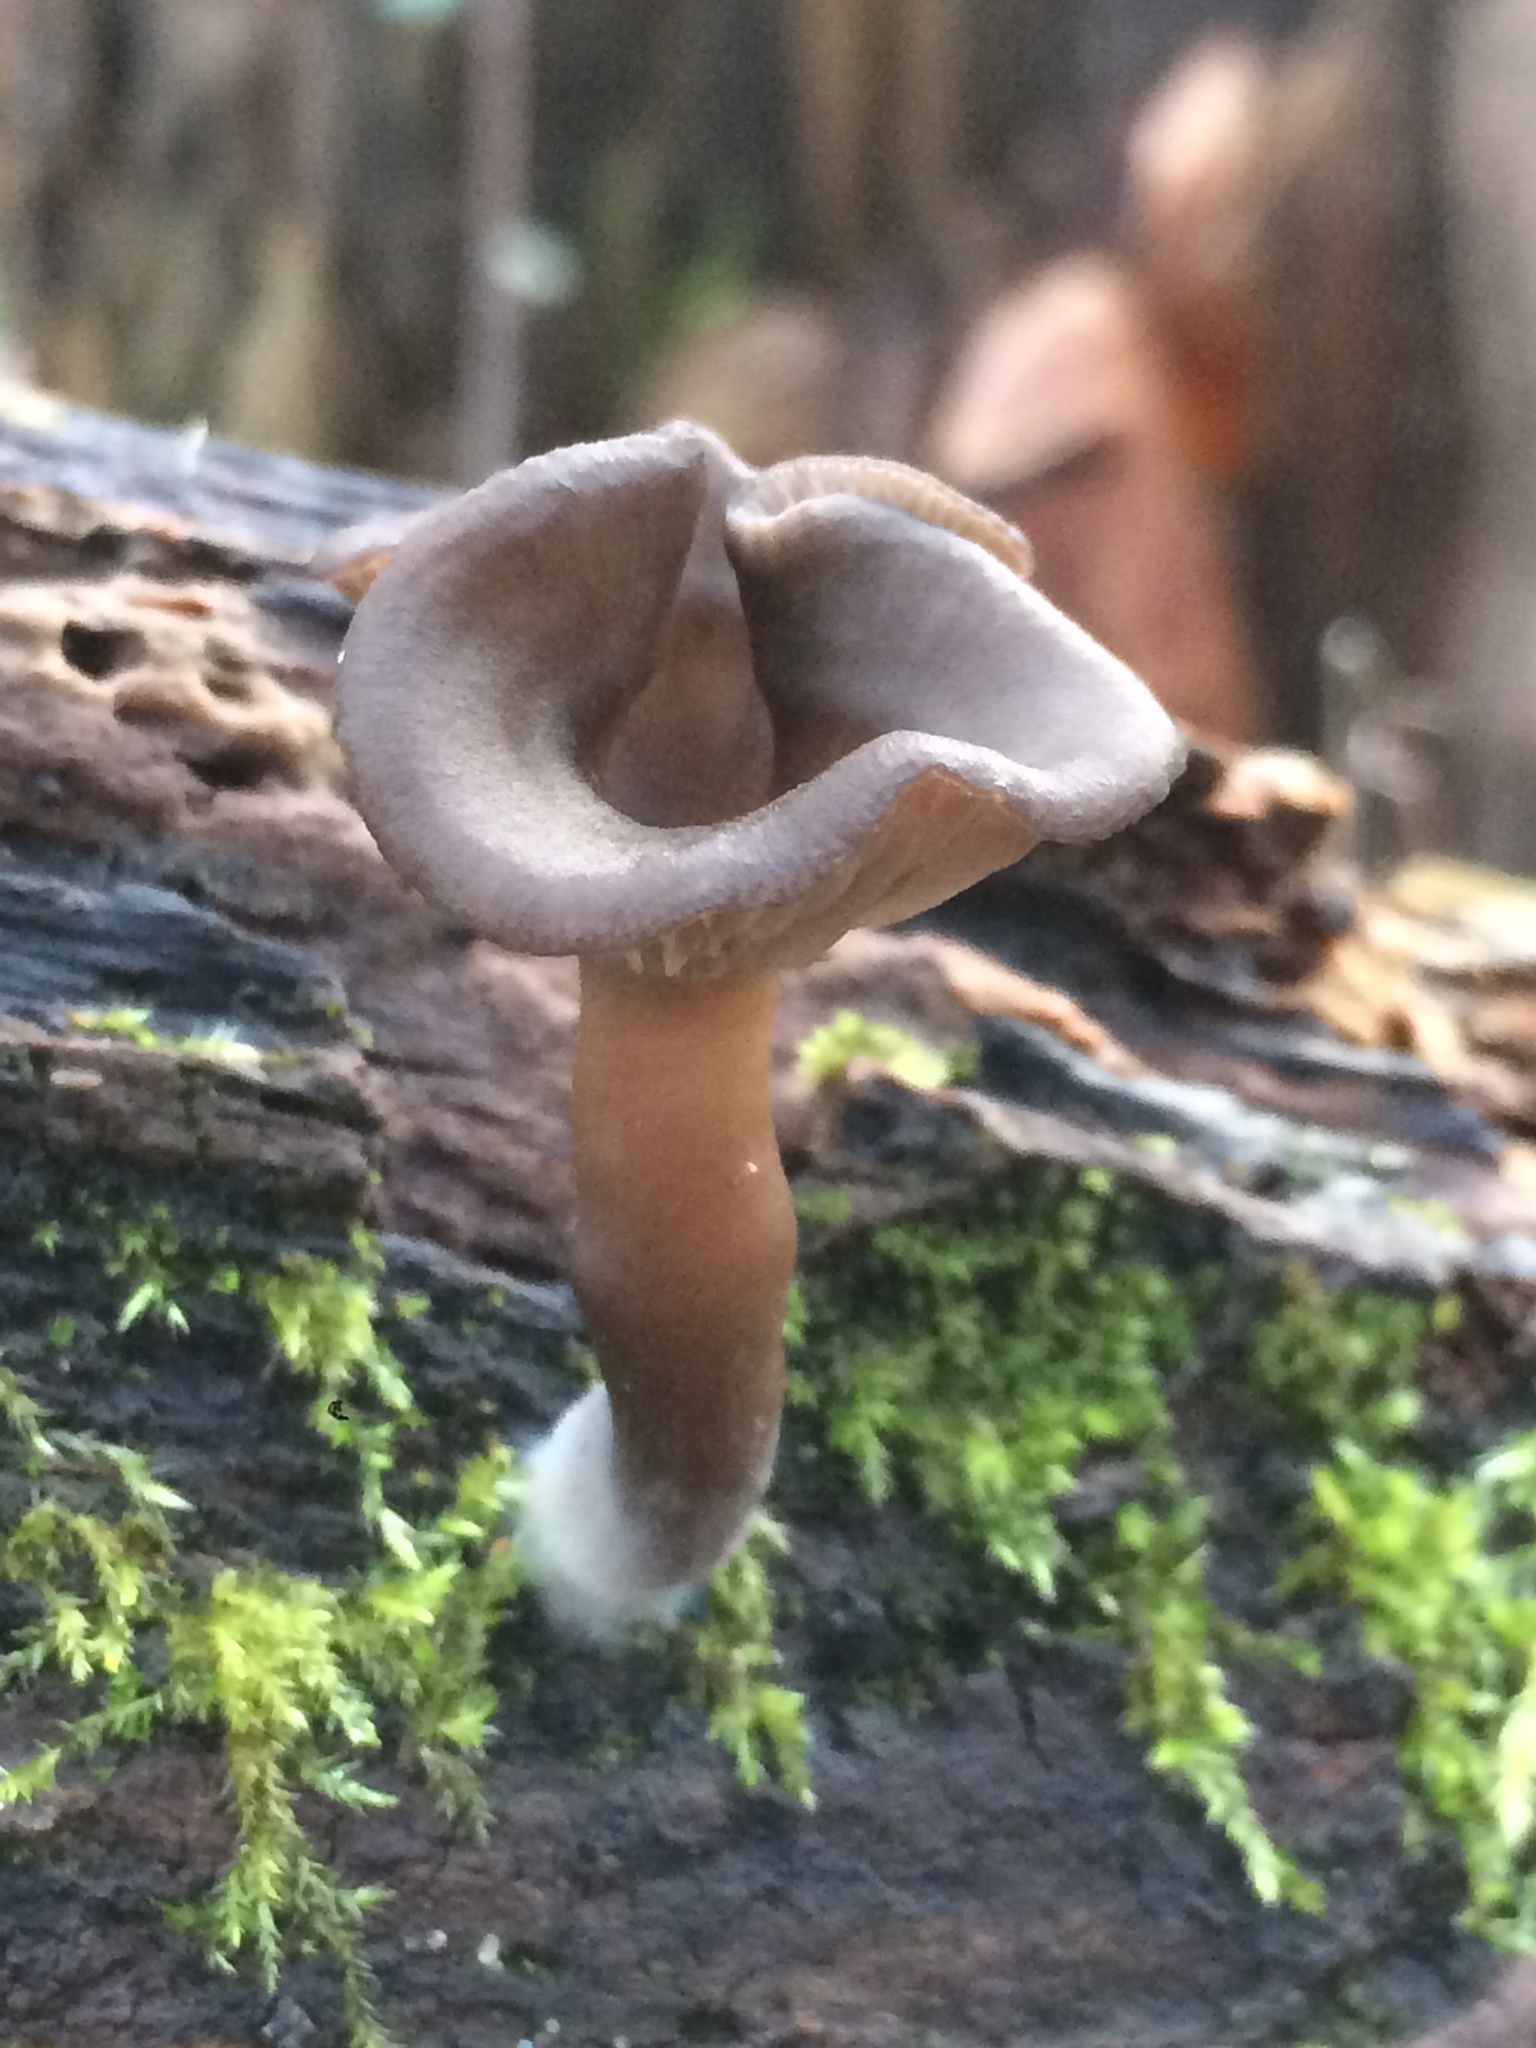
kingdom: Fungi
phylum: Basidiomycota
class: Agaricomycetes
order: Agaricales
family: Pseudoclitocybaceae
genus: Pseudoclitocybe
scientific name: Pseudoclitocybe cyathiformis
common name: Goblet
